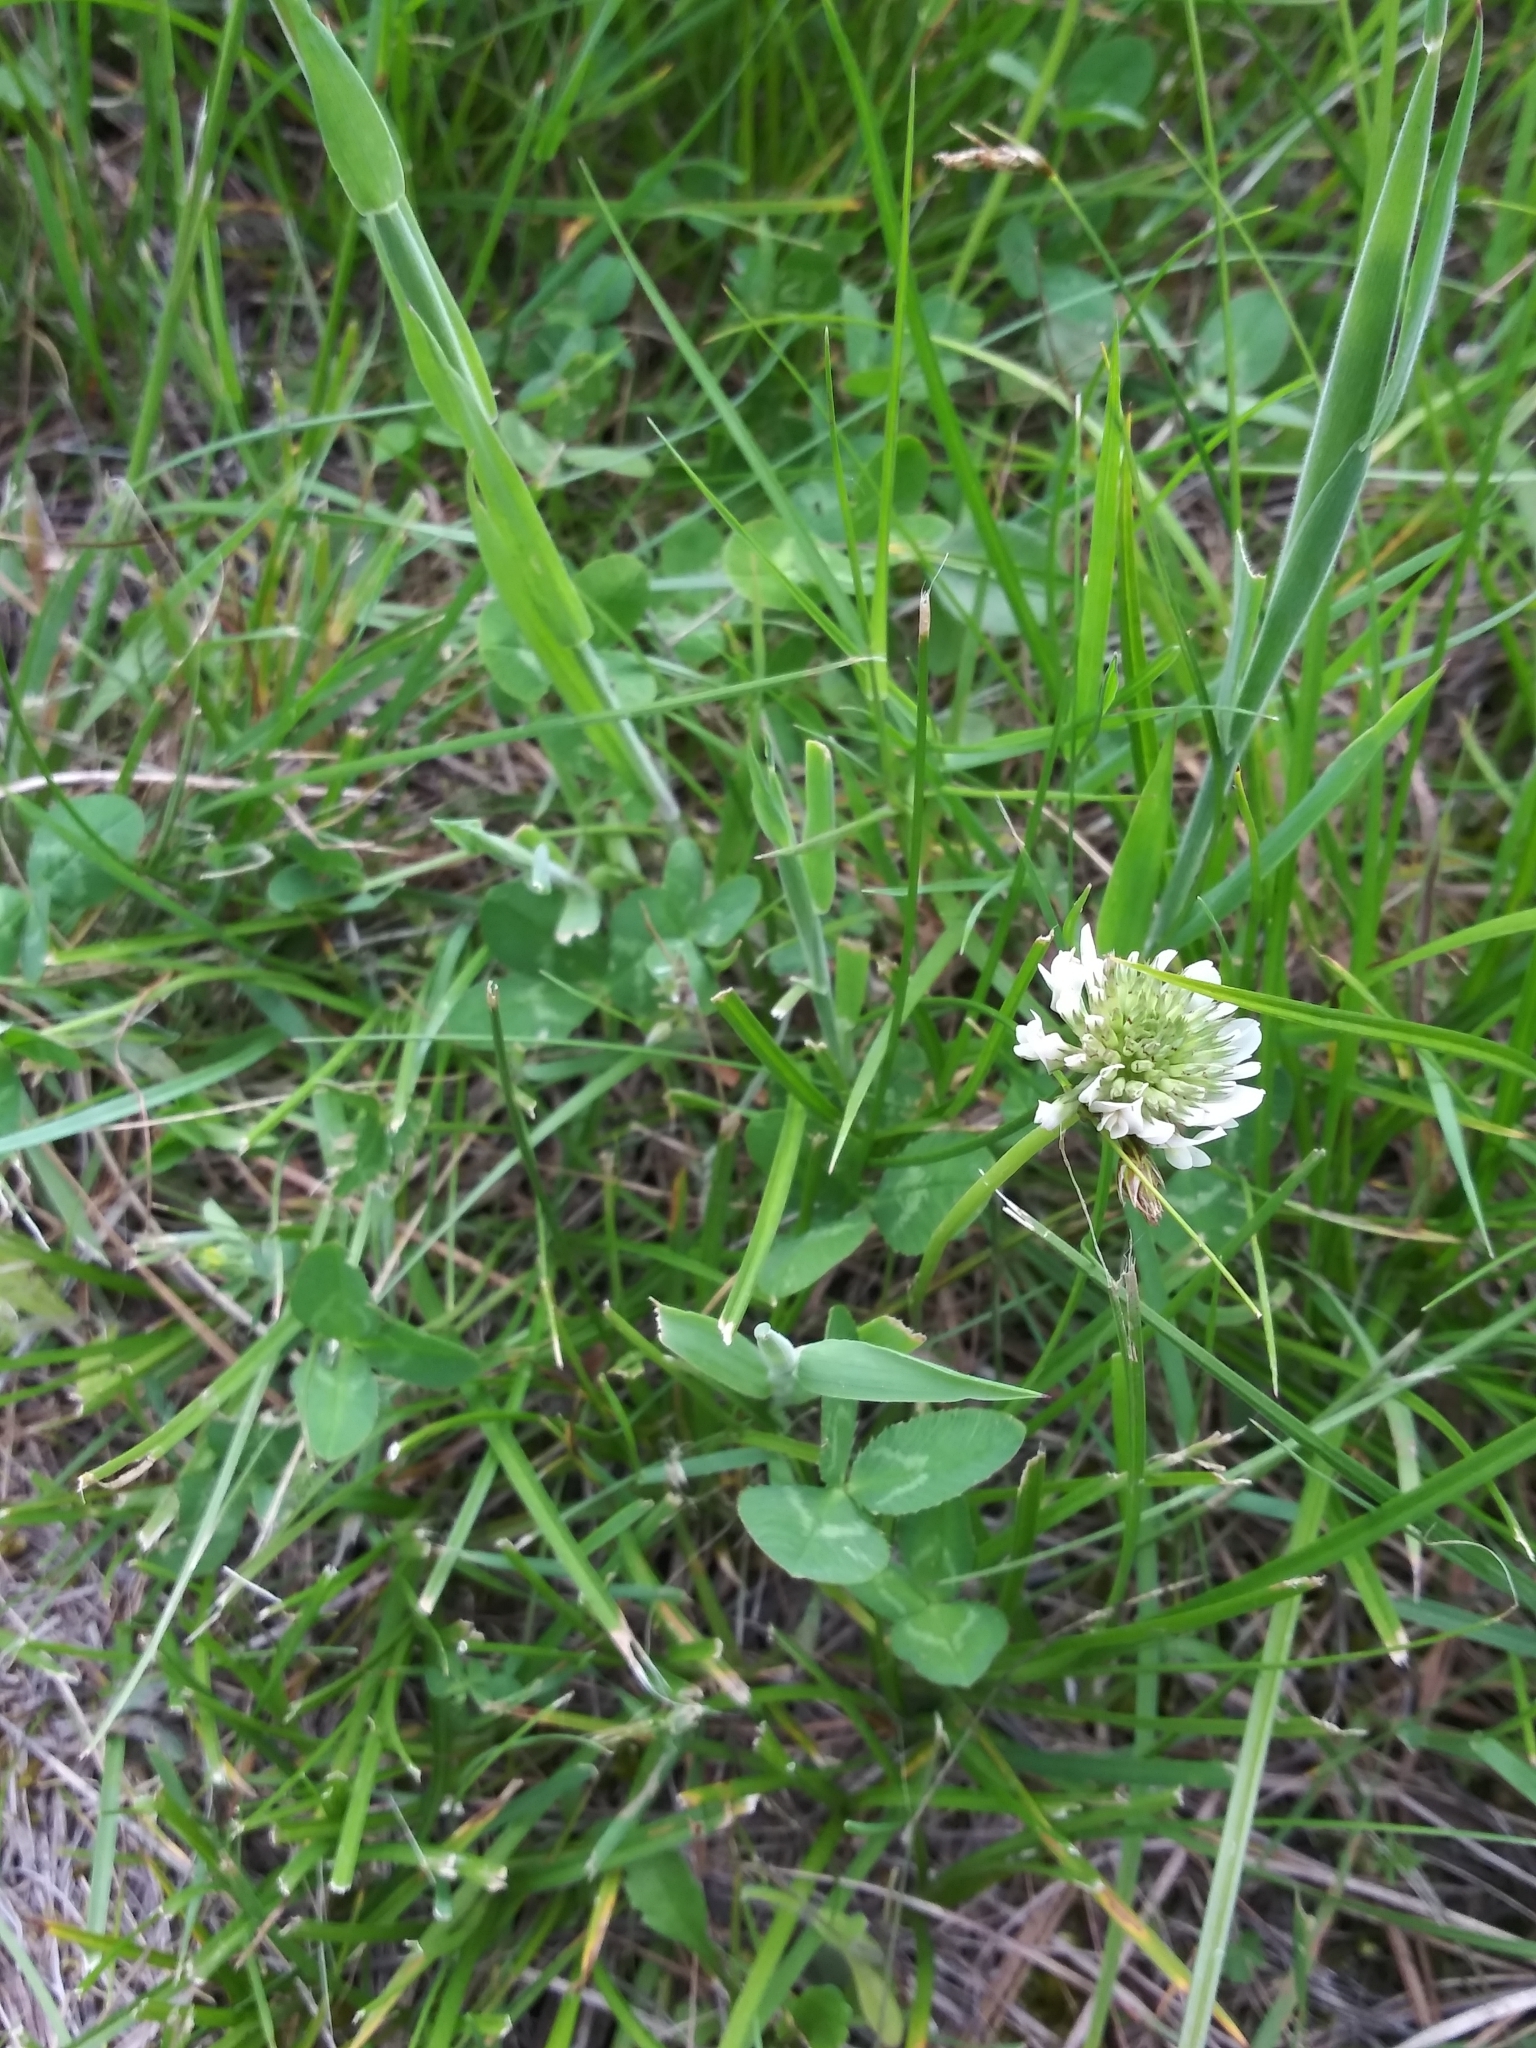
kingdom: Plantae
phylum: Tracheophyta
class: Magnoliopsida
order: Fabales
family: Fabaceae
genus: Trifolium
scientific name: Trifolium repens
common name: White clover
